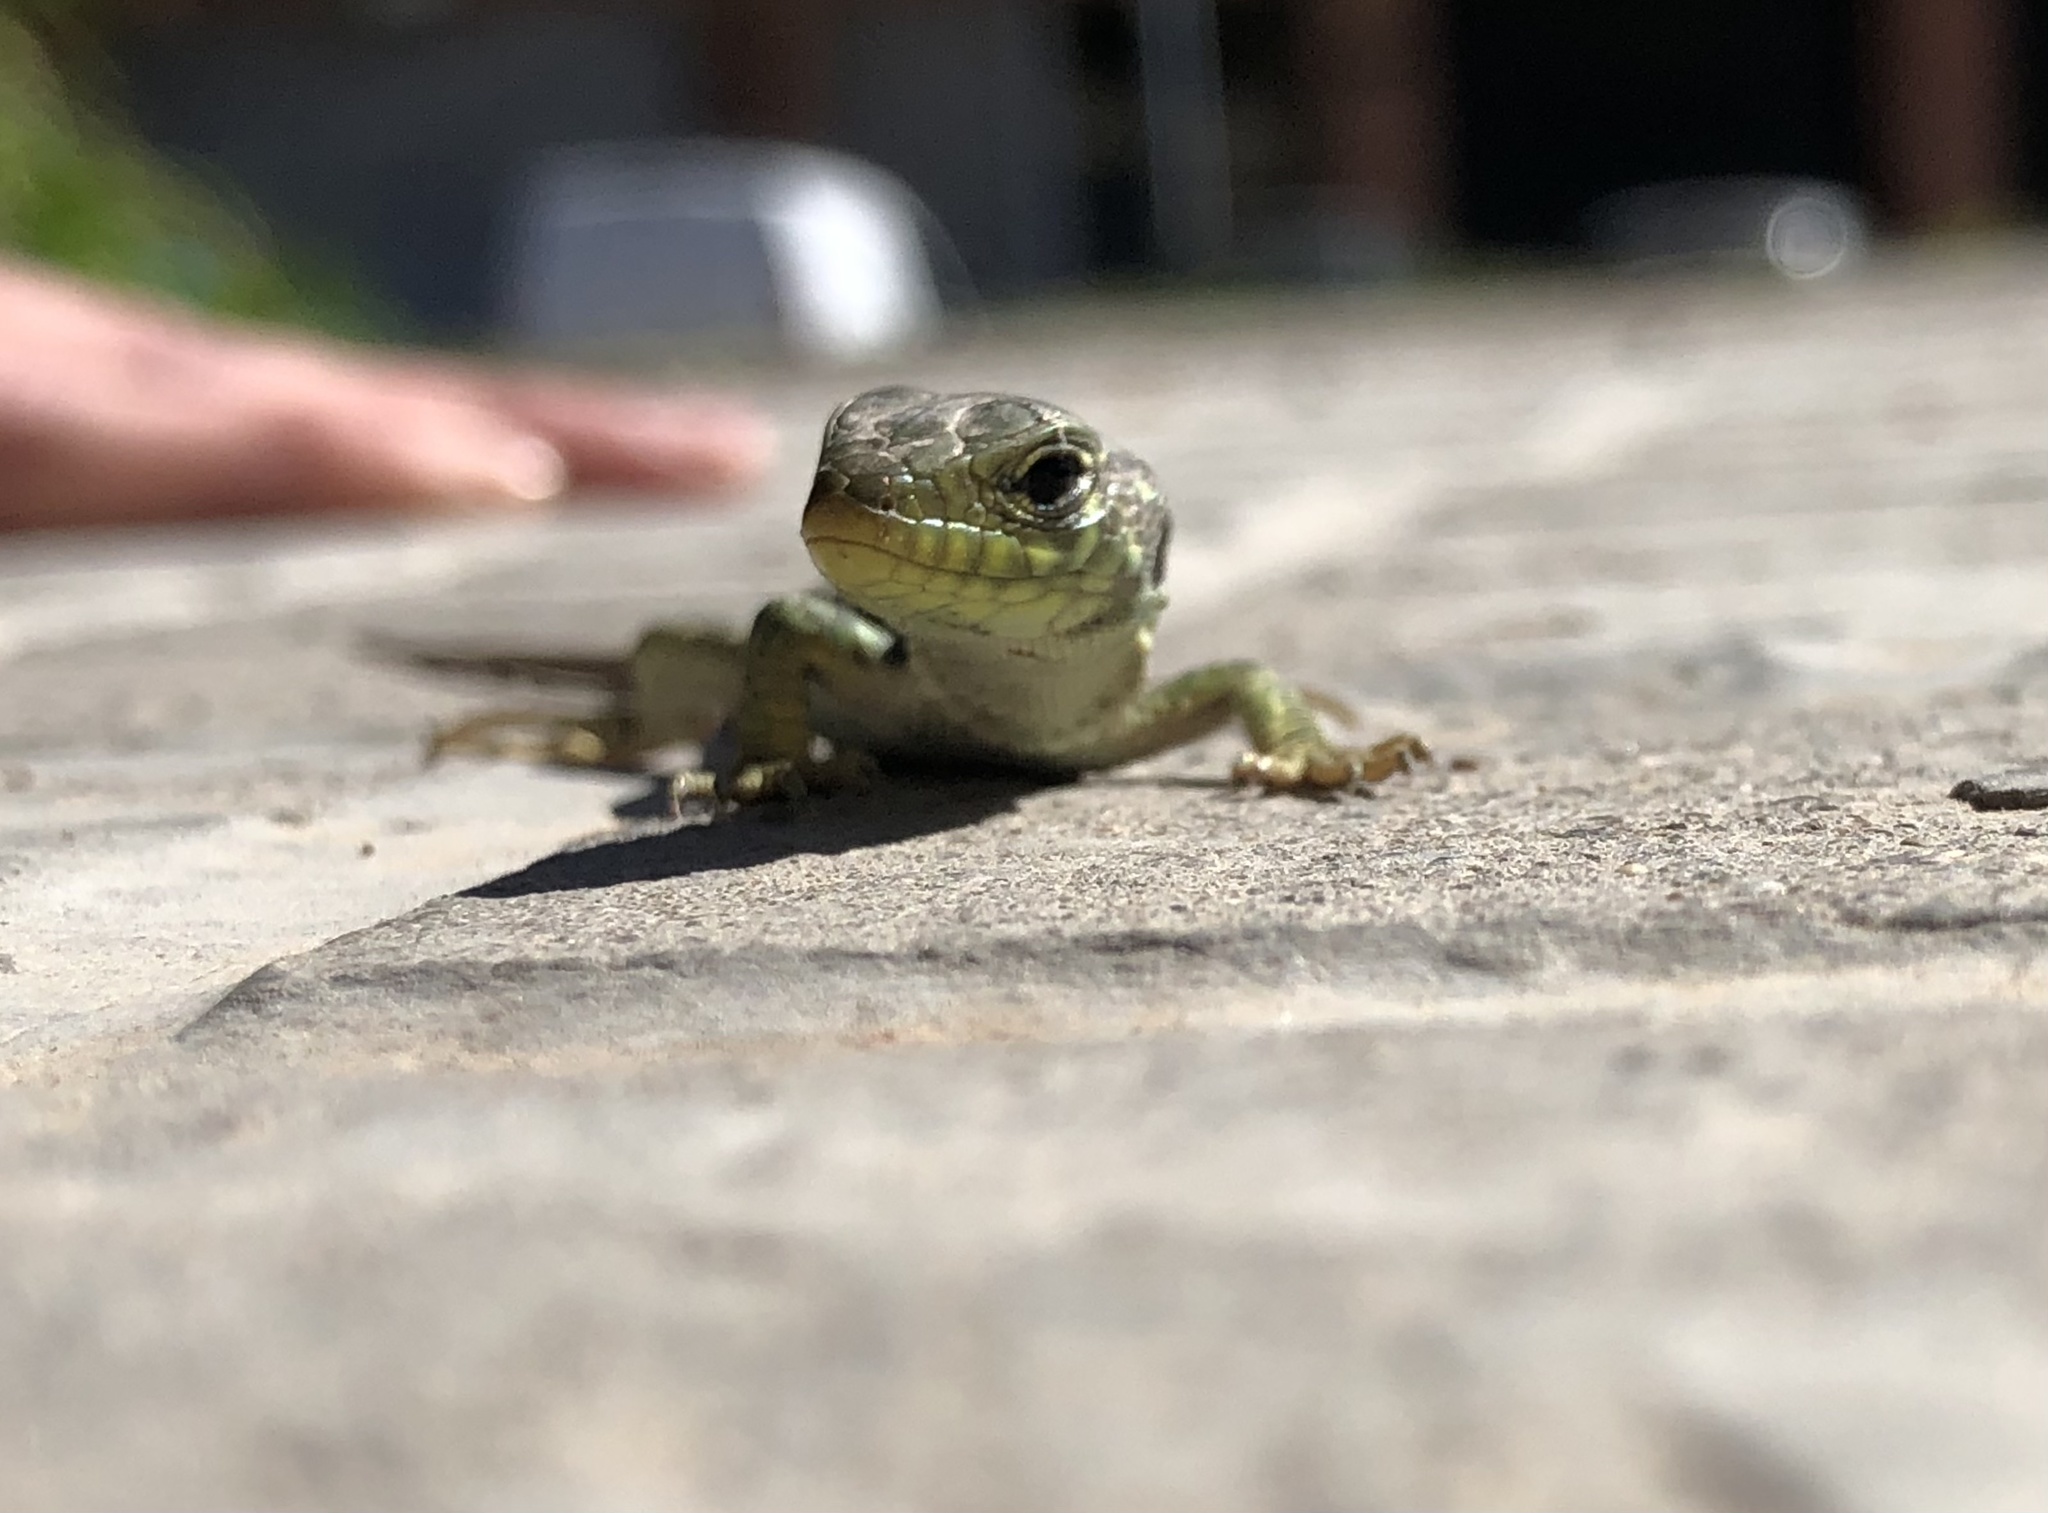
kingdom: Animalia
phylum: Chordata
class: Squamata
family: Lacertidae
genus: Timon
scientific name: Timon lepidus
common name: Ocellated lizard
